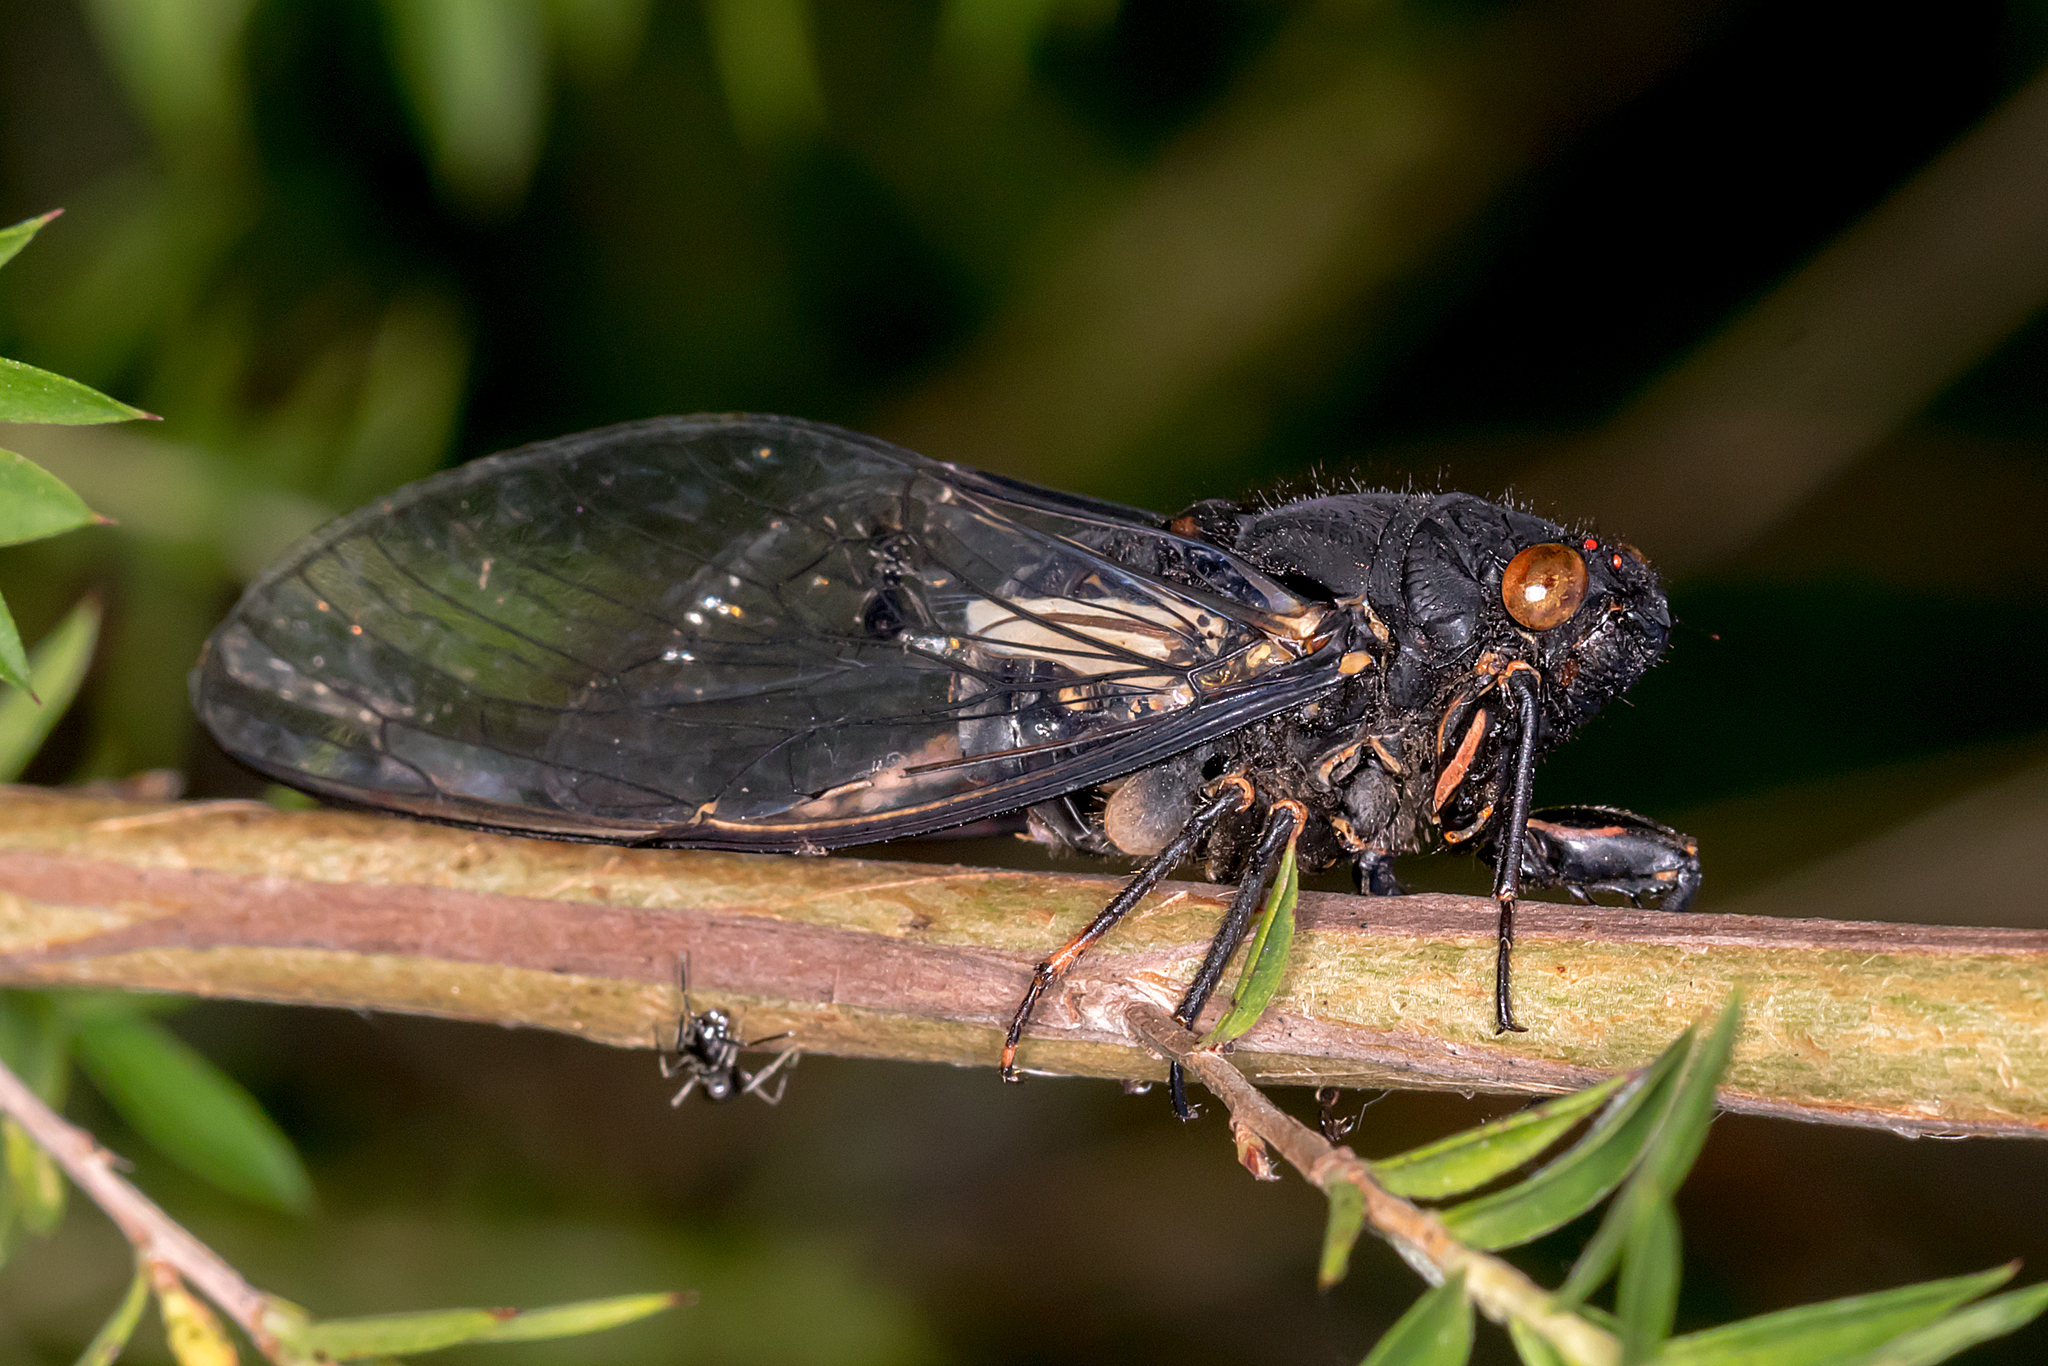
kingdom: Animalia
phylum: Arthropoda
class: Insecta
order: Hemiptera
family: Cicadidae
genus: Yoyetta
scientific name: Yoyetta grandis
